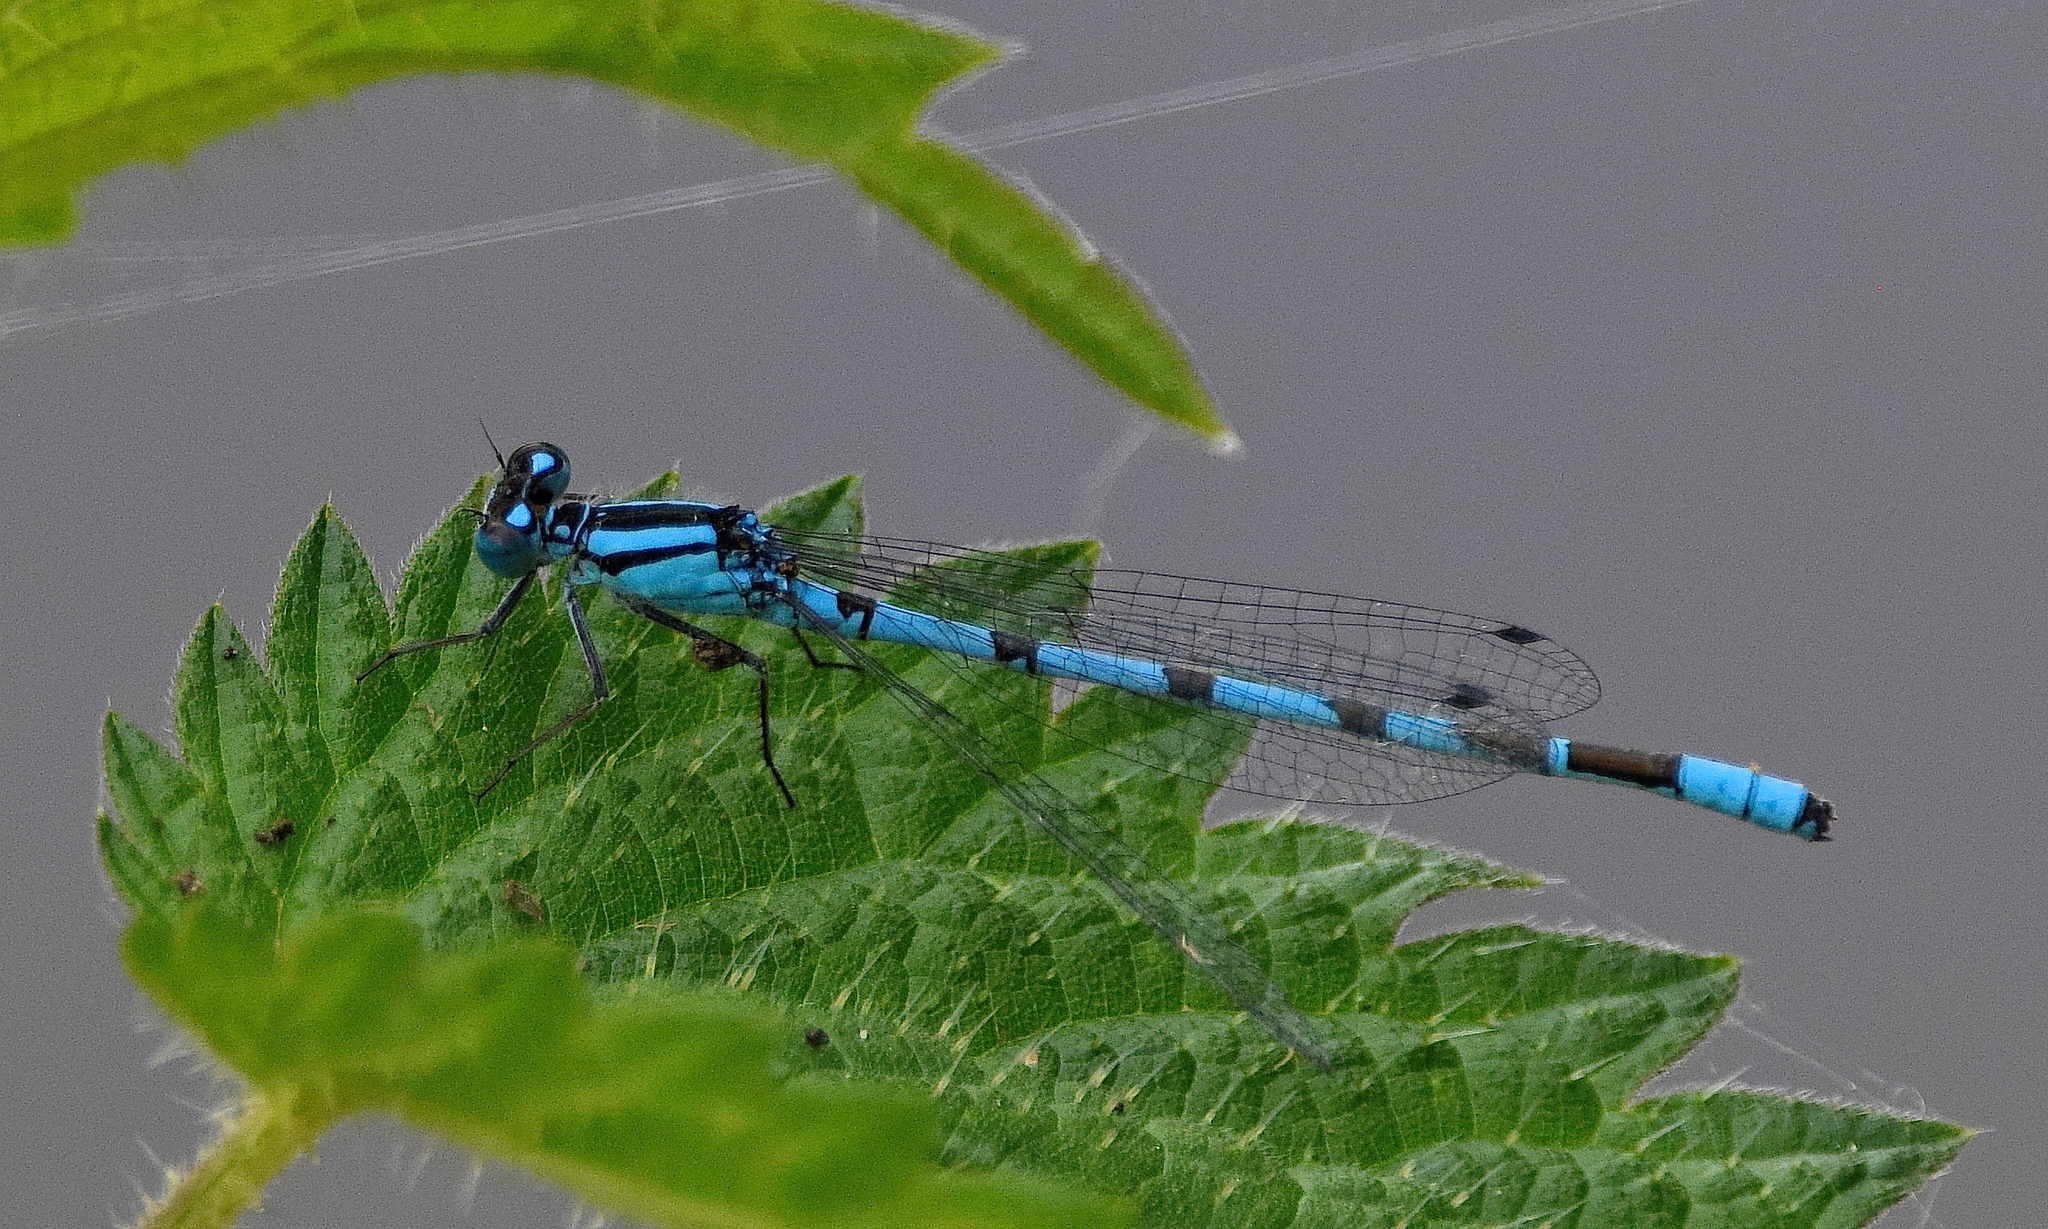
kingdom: Animalia
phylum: Arthropoda
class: Insecta
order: Odonata
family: Coenagrionidae
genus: Enallagma
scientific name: Enallagma cyathigerum
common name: Common blue damselfly
